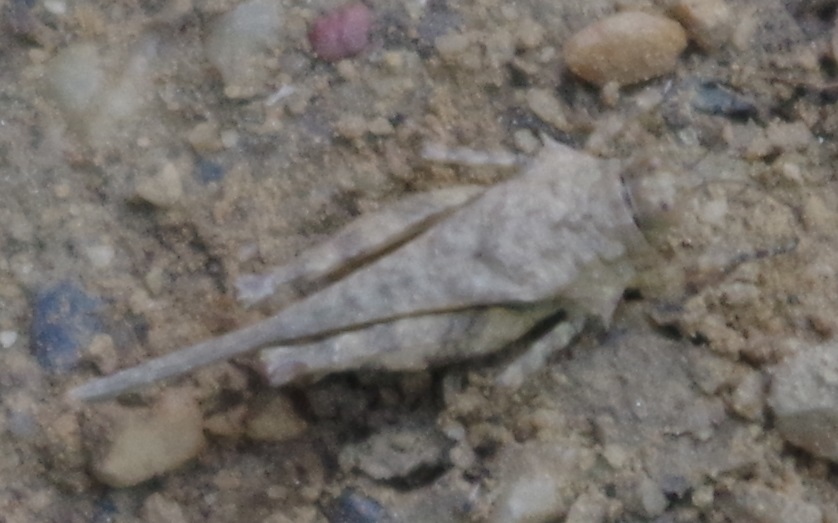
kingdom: Animalia
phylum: Arthropoda
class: Insecta
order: Orthoptera
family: Tetrigidae
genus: Aryalidonta
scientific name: Aryalidonta
